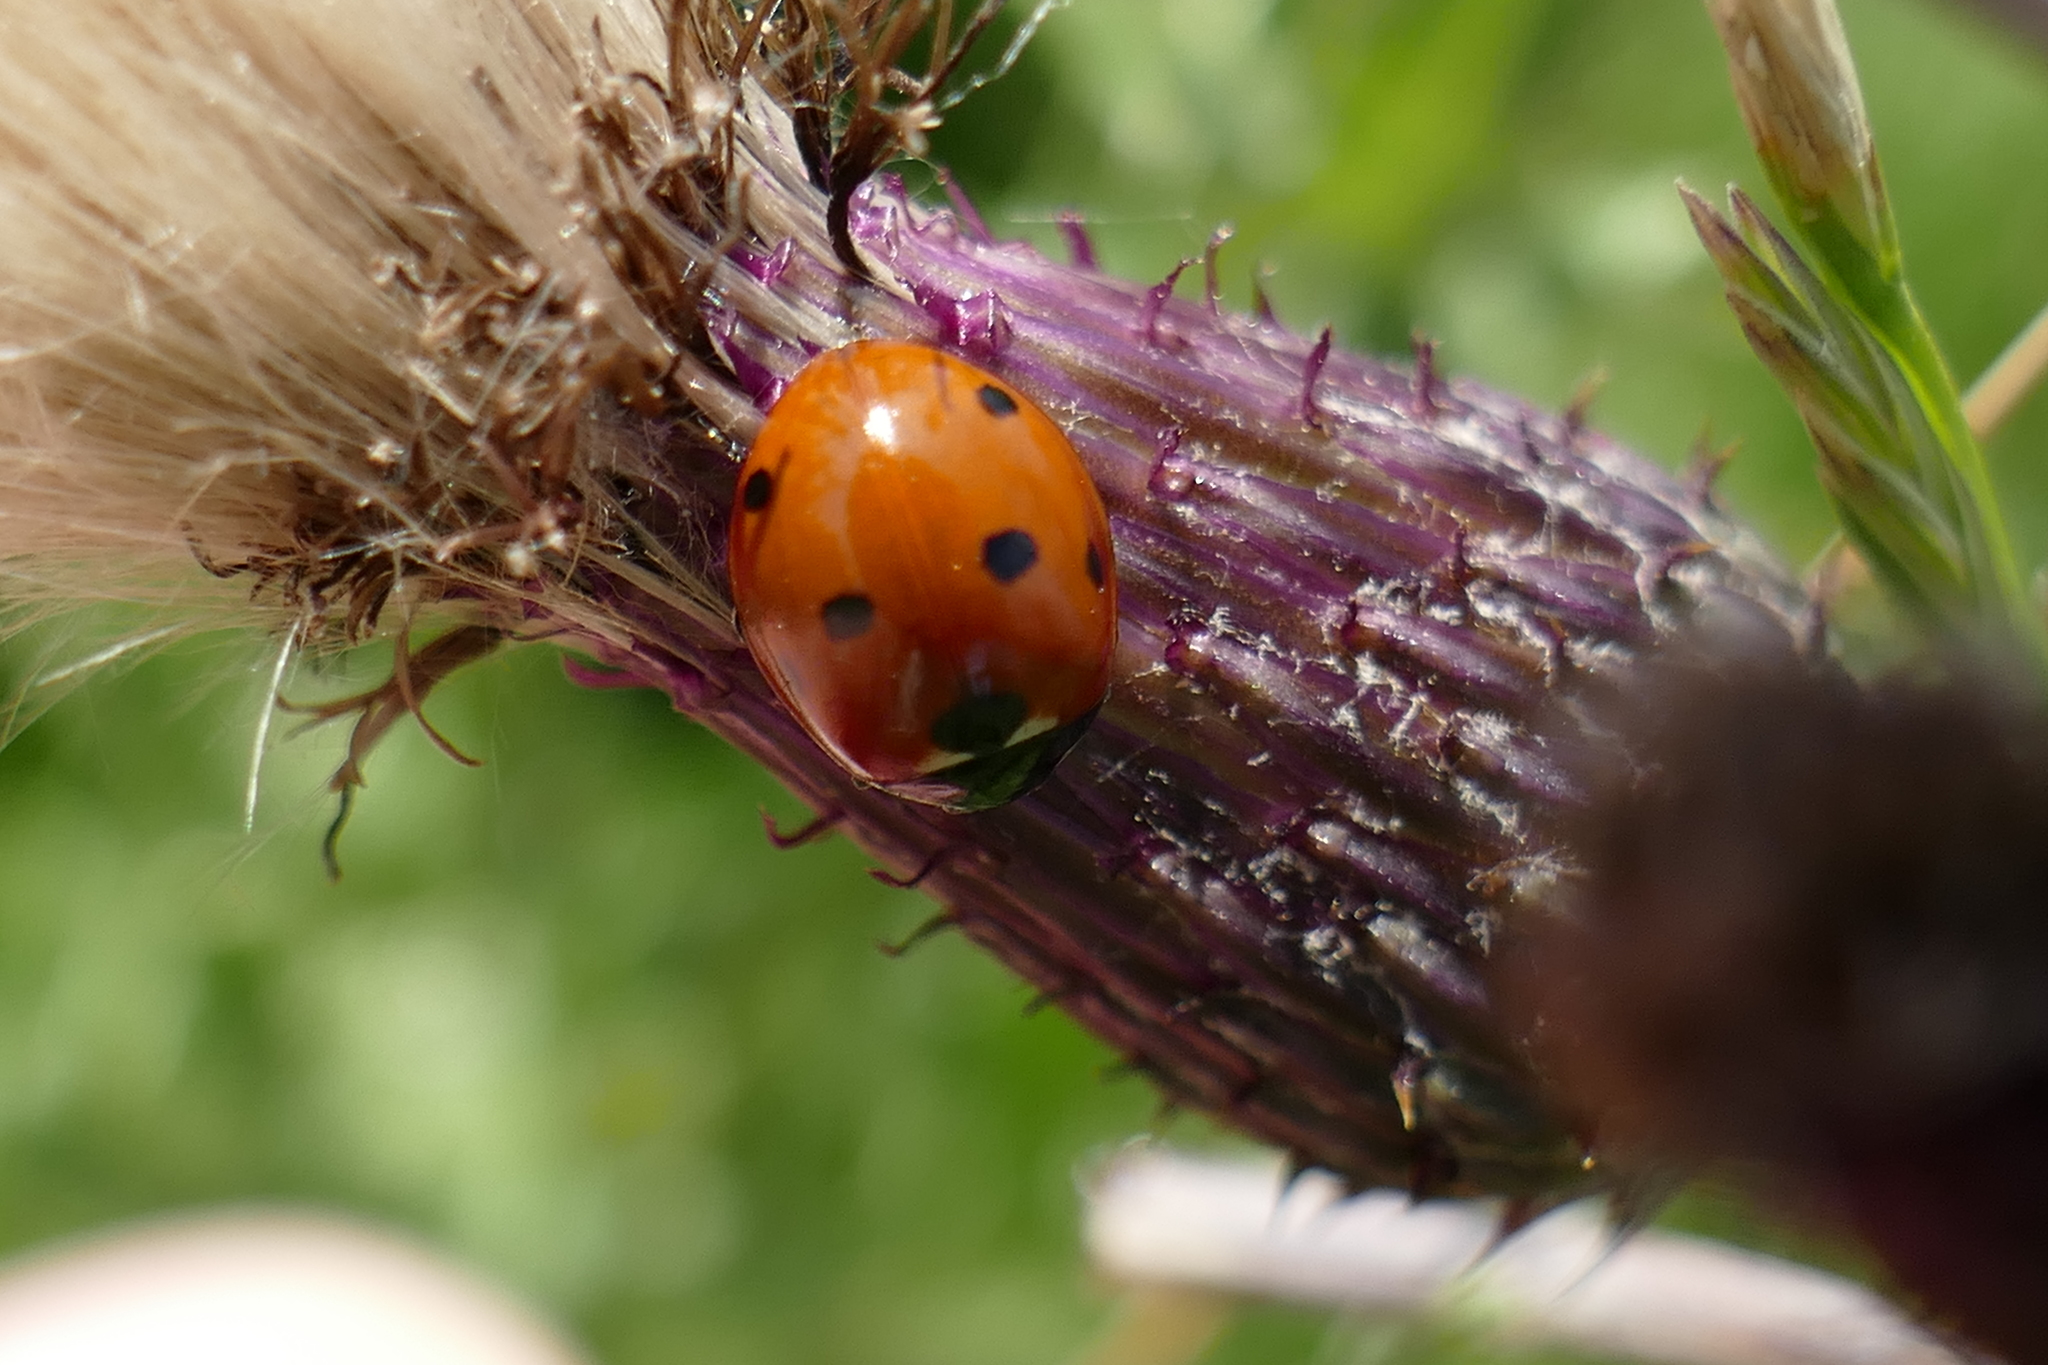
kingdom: Animalia
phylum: Arthropoda
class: Insecta
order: Coleoptera
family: Coccinellidae
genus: Coccinella
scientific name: Coccinella septempunctata
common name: Sevenspotted lady beetle
